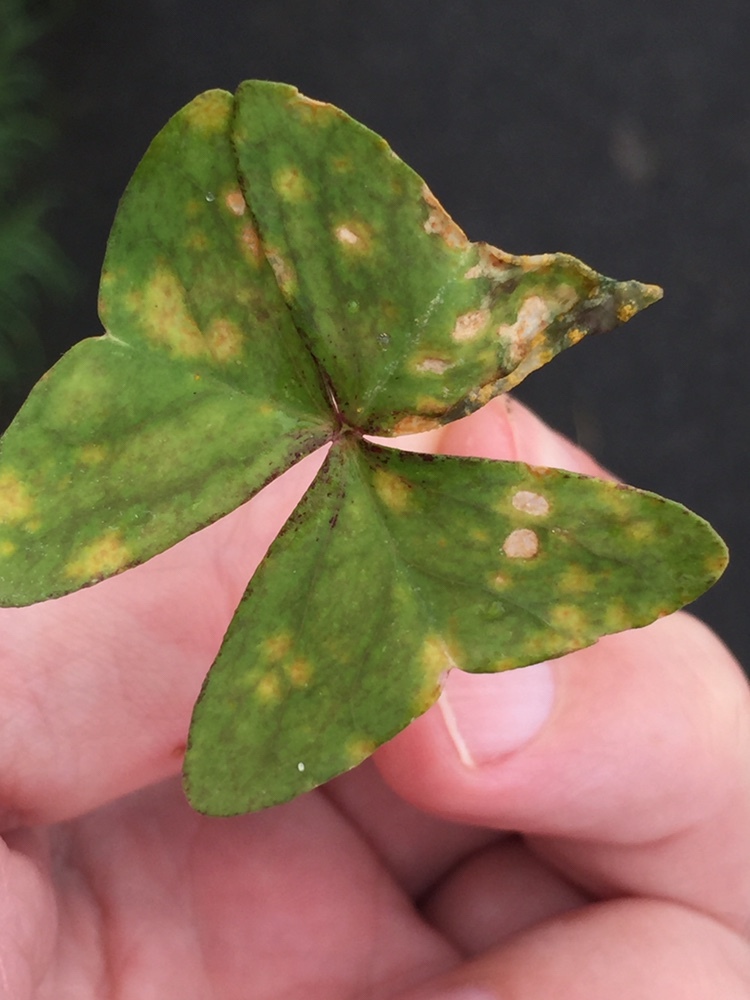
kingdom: Fungi
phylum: Basidiomycota
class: Pucciniomycetes
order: Pucciniales
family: Pucciniaceae
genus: Puccinia
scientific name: Puccinia oxalidis
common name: Oxalis rust
